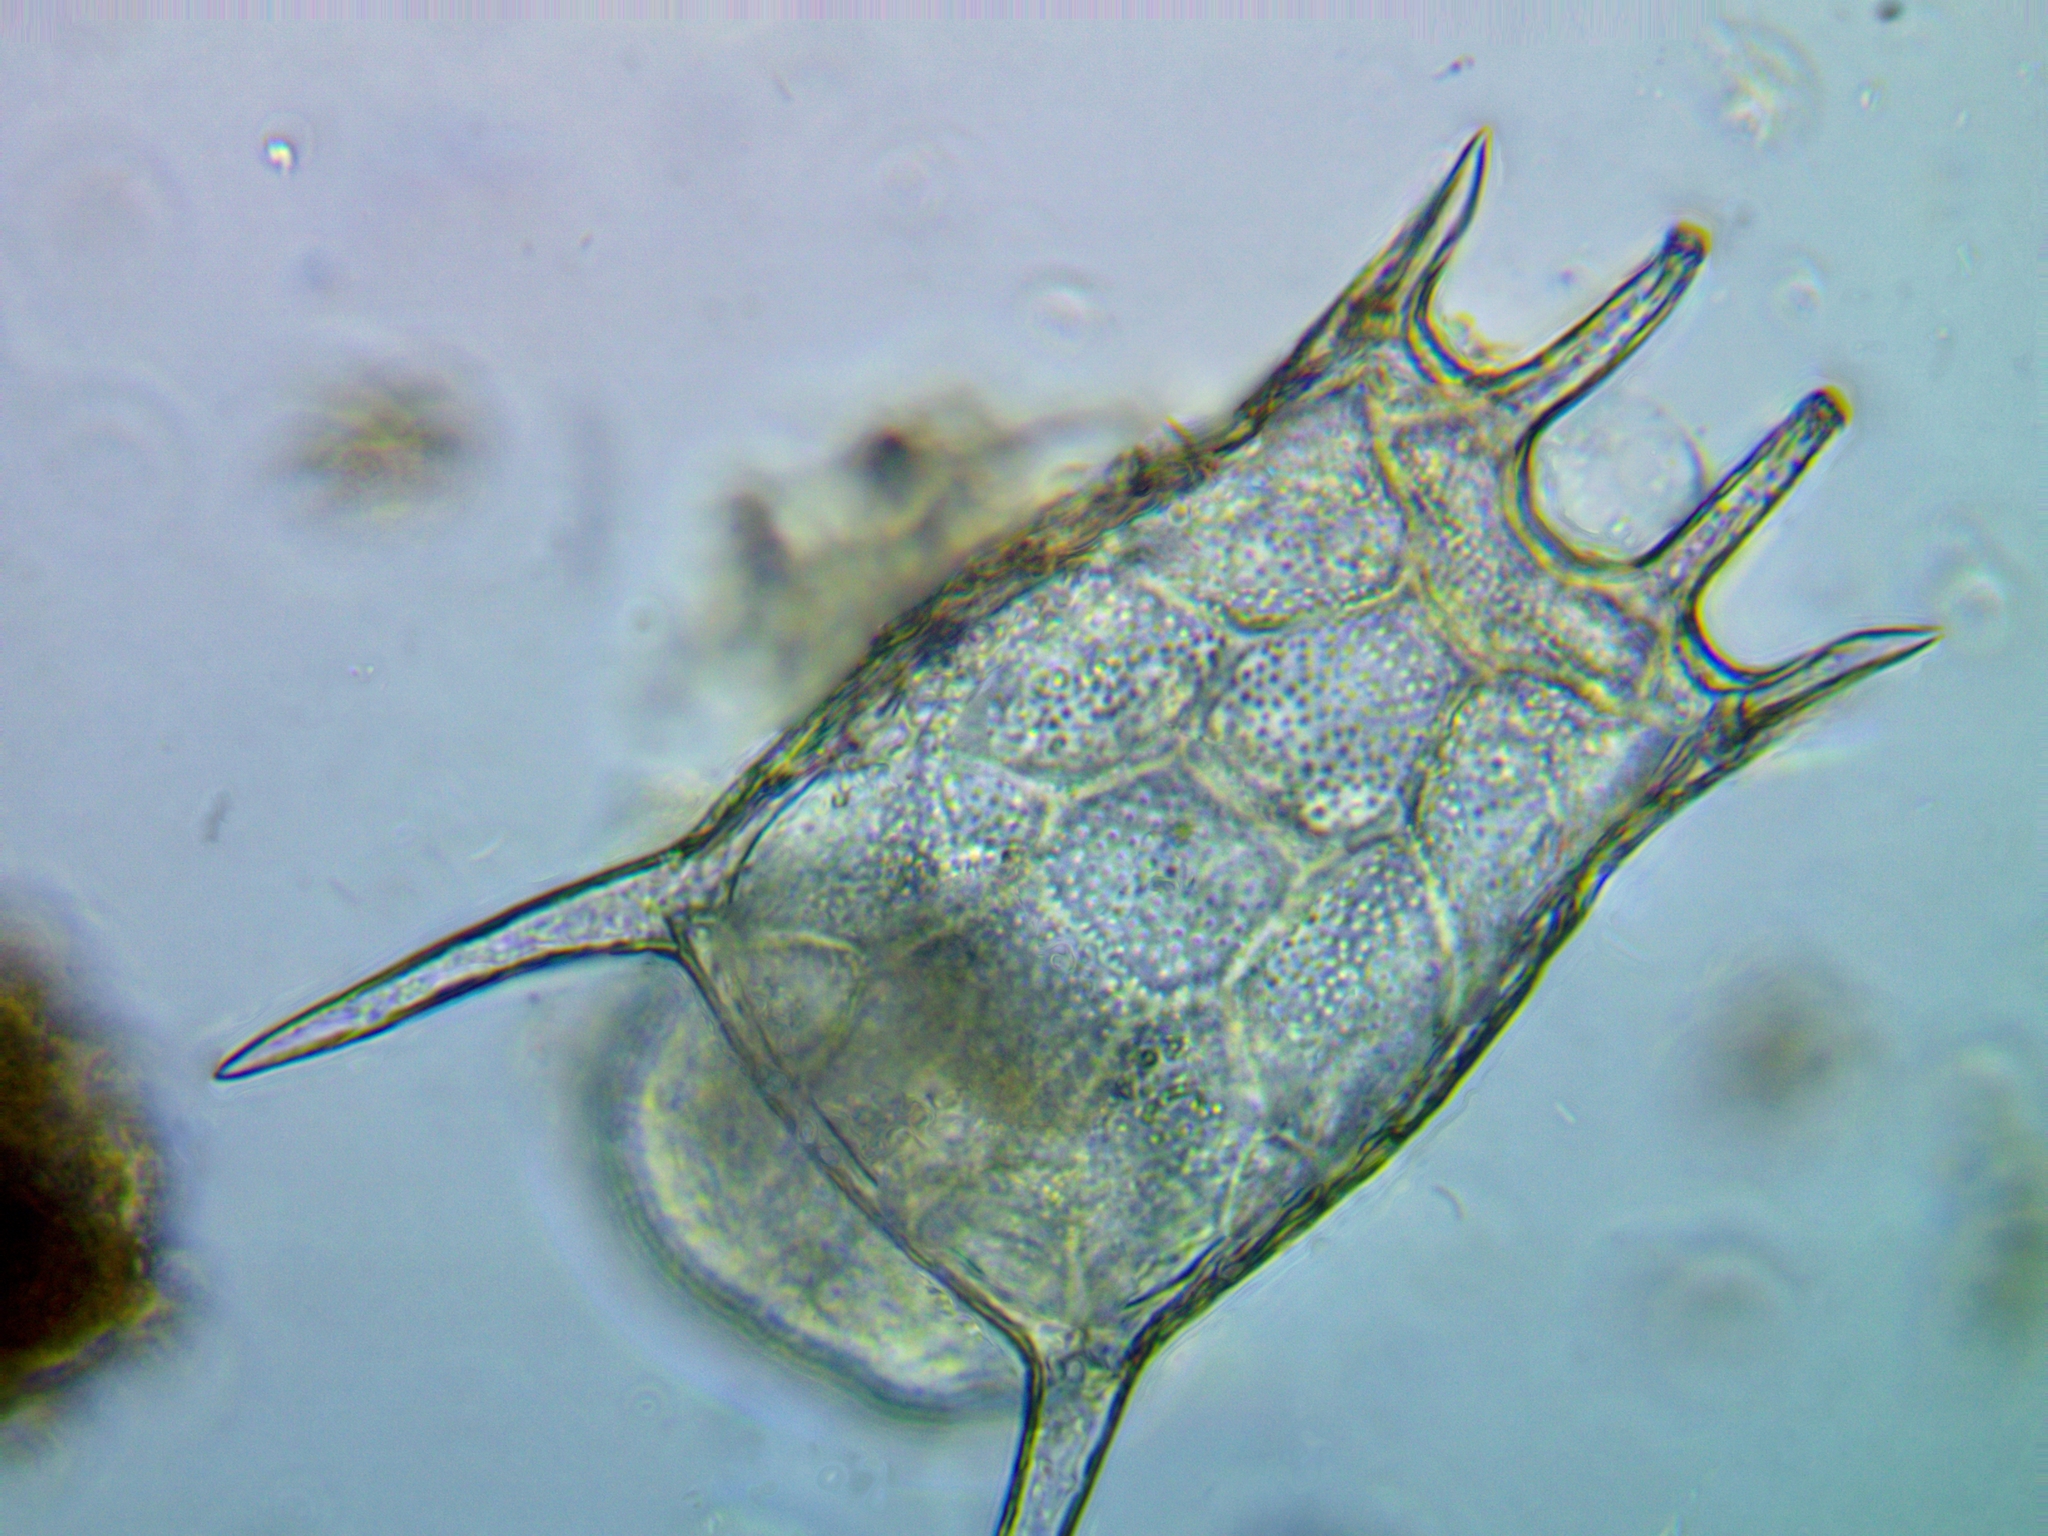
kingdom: Animalia
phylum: Rotifera
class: Eurotatoria
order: Ploima
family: Brachionidae
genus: Keratella
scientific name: Keratella quadrata
